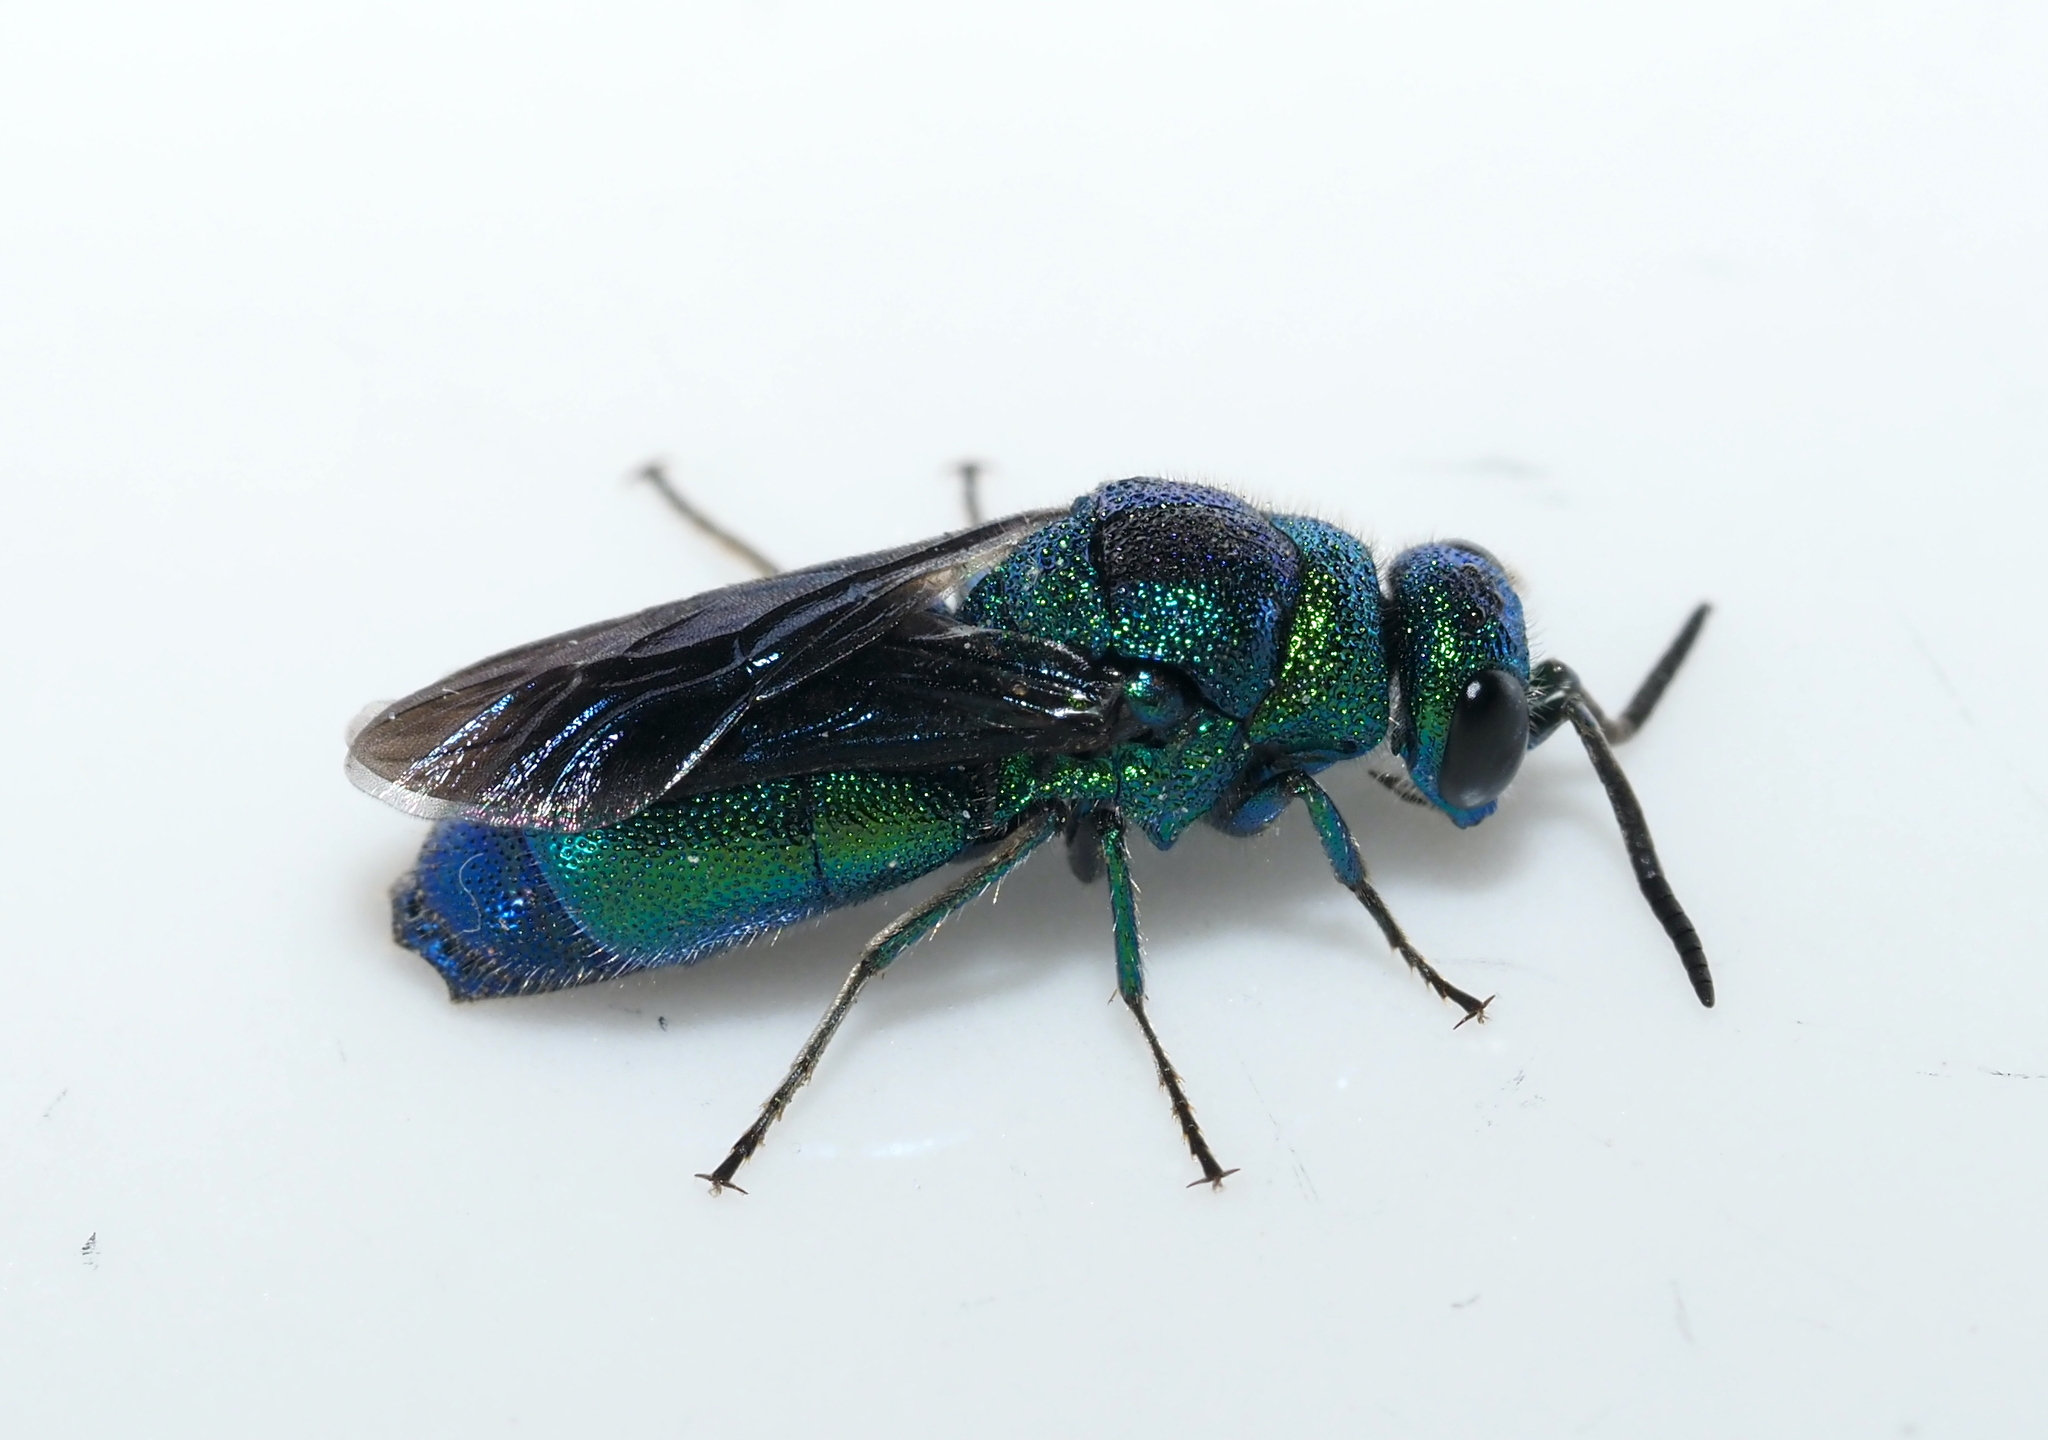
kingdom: Animalia
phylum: Arthropoda
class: Insecta
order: Hymenoptera
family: Chrysididae
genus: Chrysis
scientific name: Chrysis angolensis
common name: Cuckoo wasp
